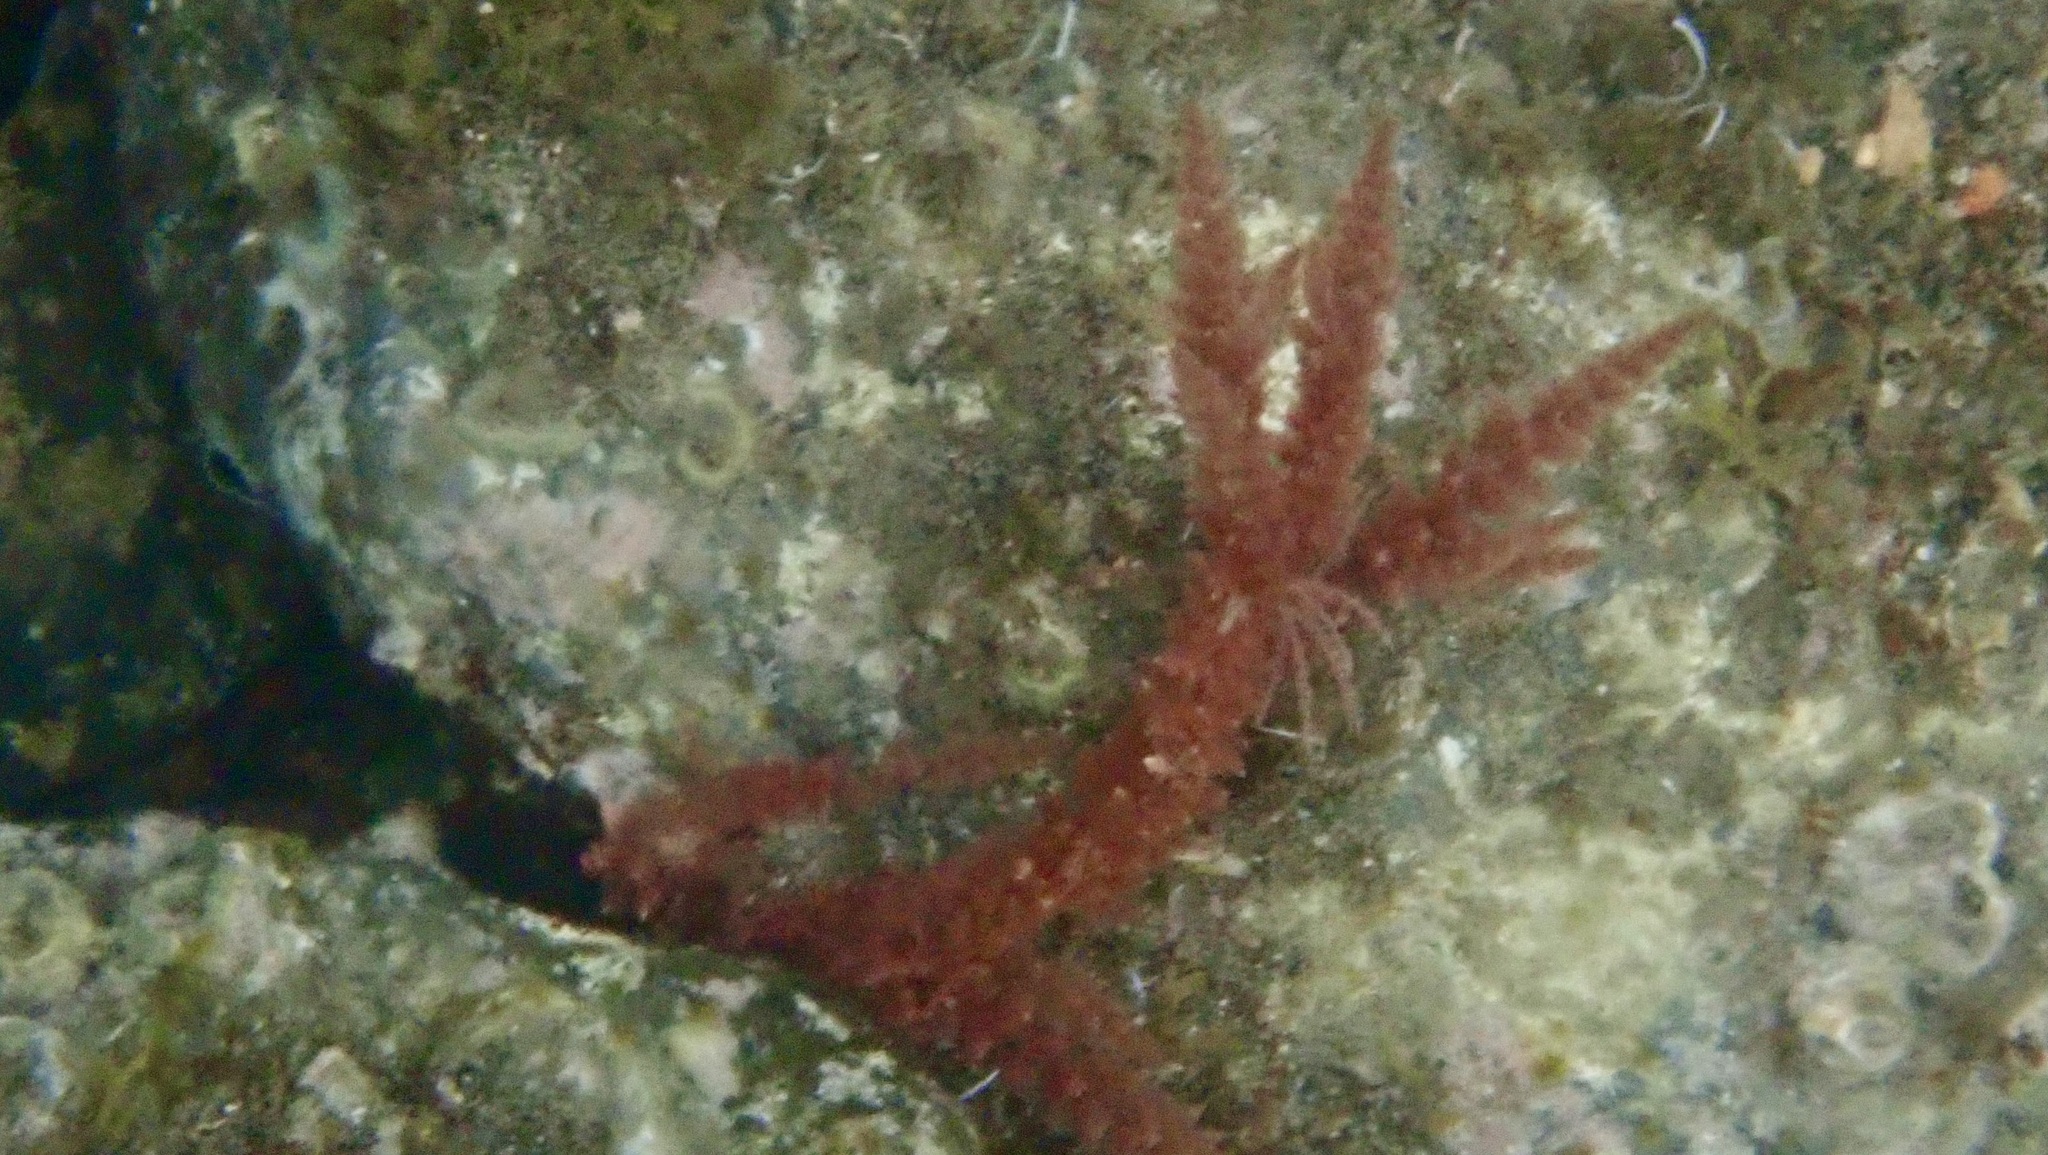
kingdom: Plantae
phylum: Rhodophyta
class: Florideophyceae
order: Bonnemaisoniales
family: Bonnemaisoniaceae
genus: Asparagopsis
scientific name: Asparagopsis armata
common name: Harpoon weed
